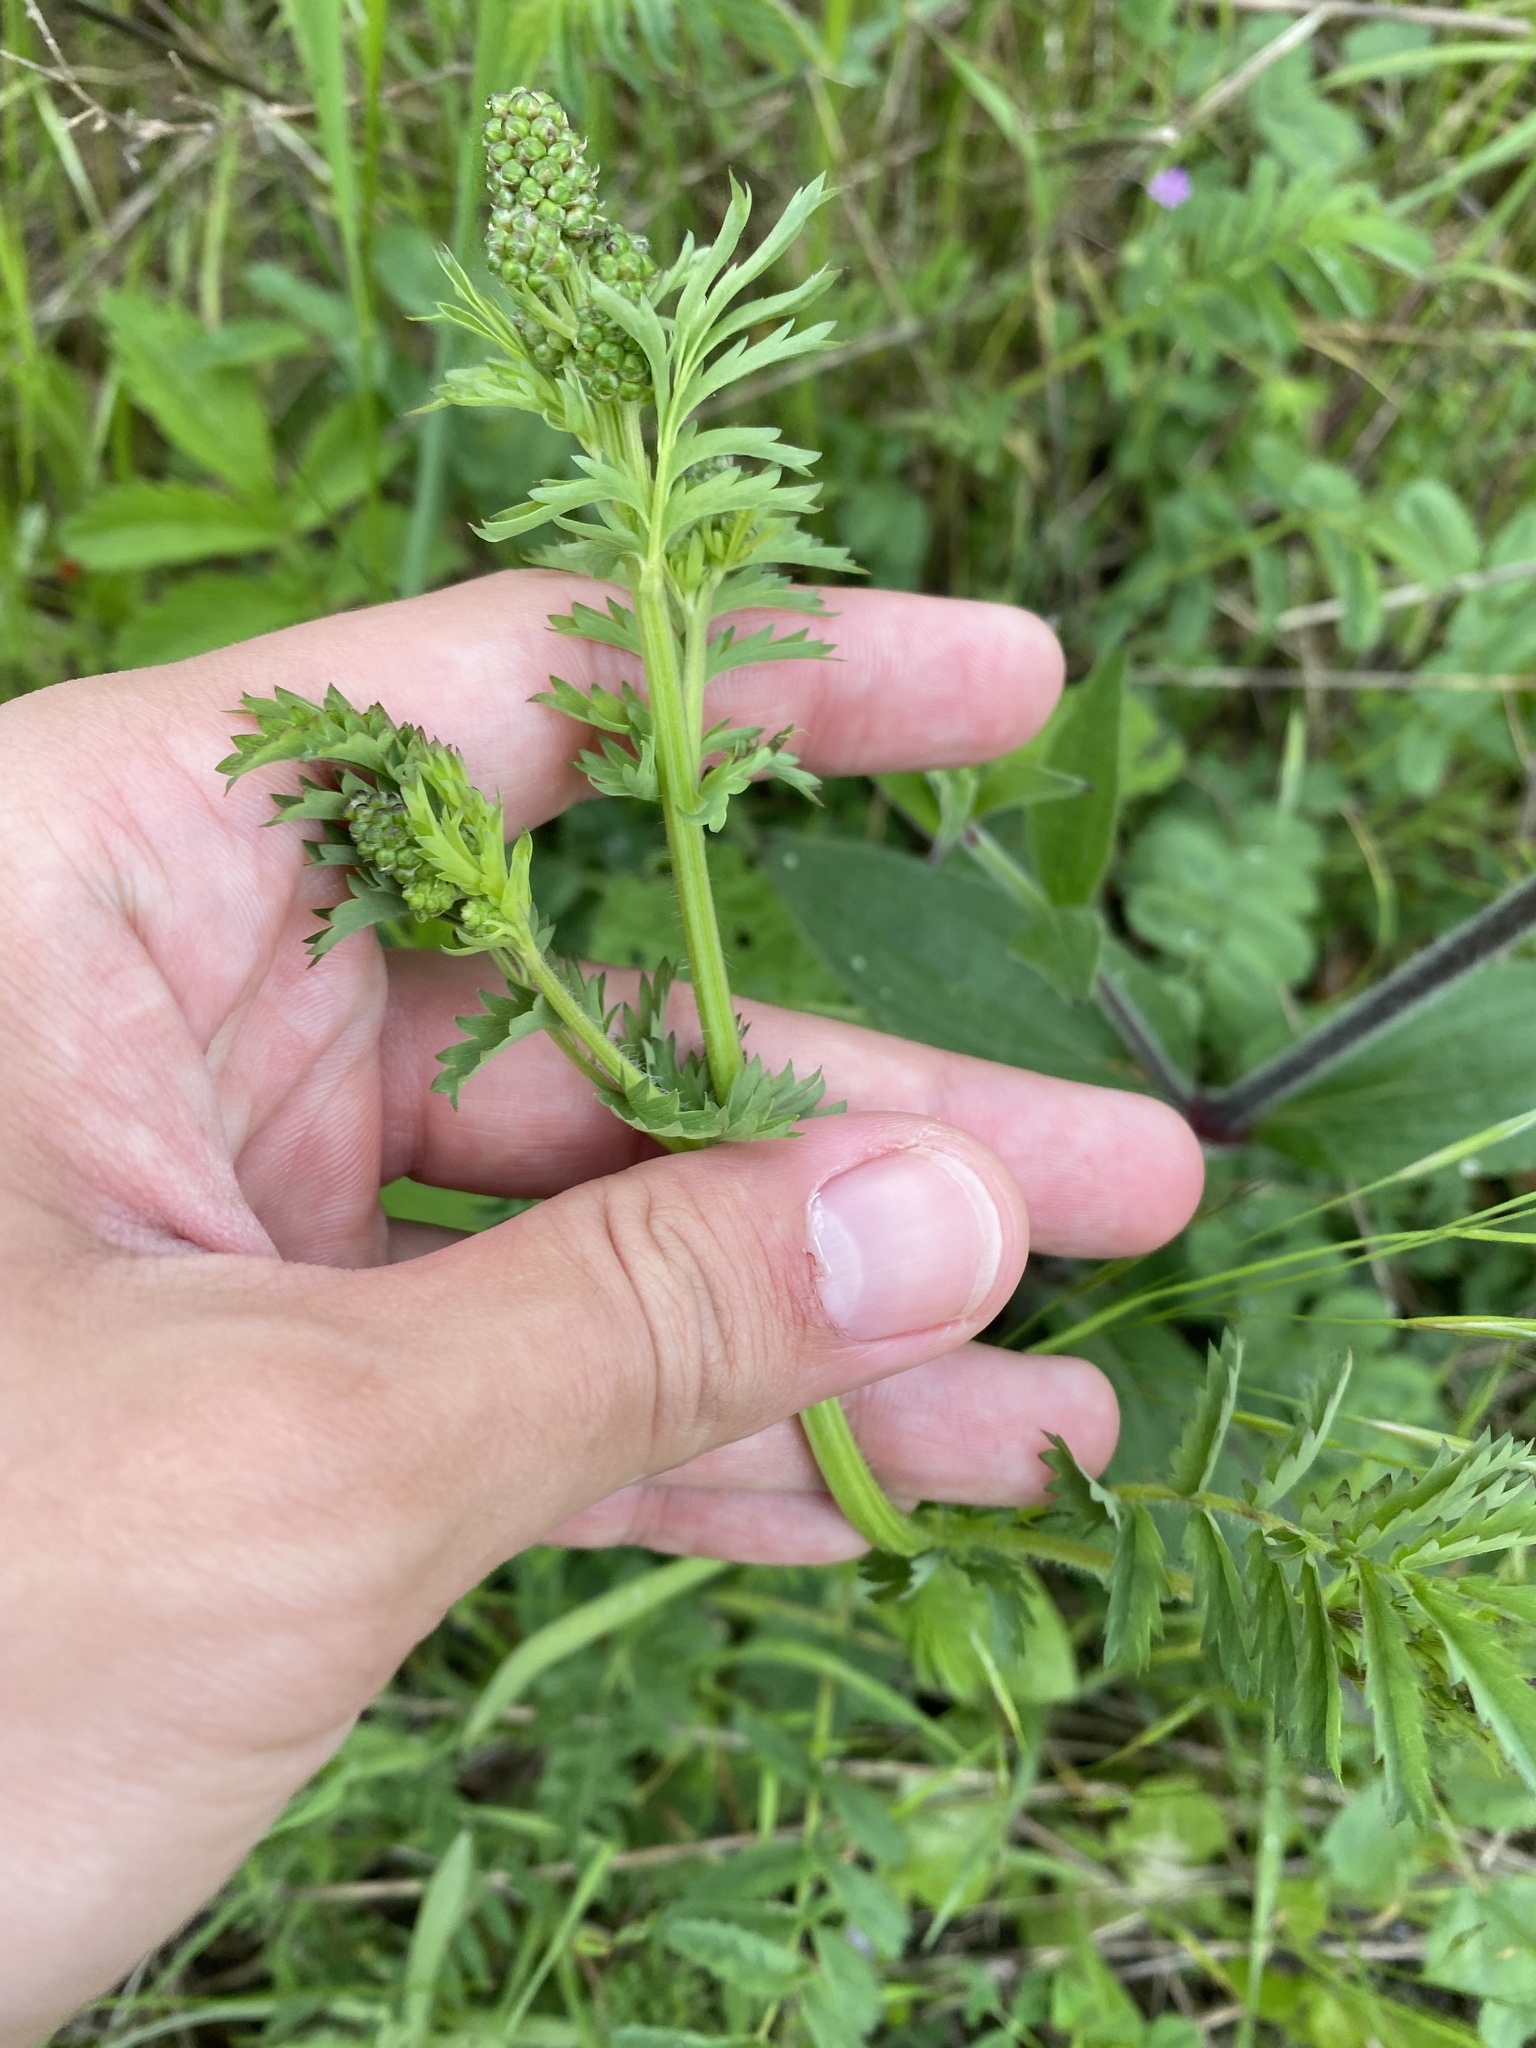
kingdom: Plantae
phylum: Tracheophyta
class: Magnoliopsida
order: Rosales
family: Rosaceae
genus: Poterium
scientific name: Poterium sanguisorba
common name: Salad burnet
